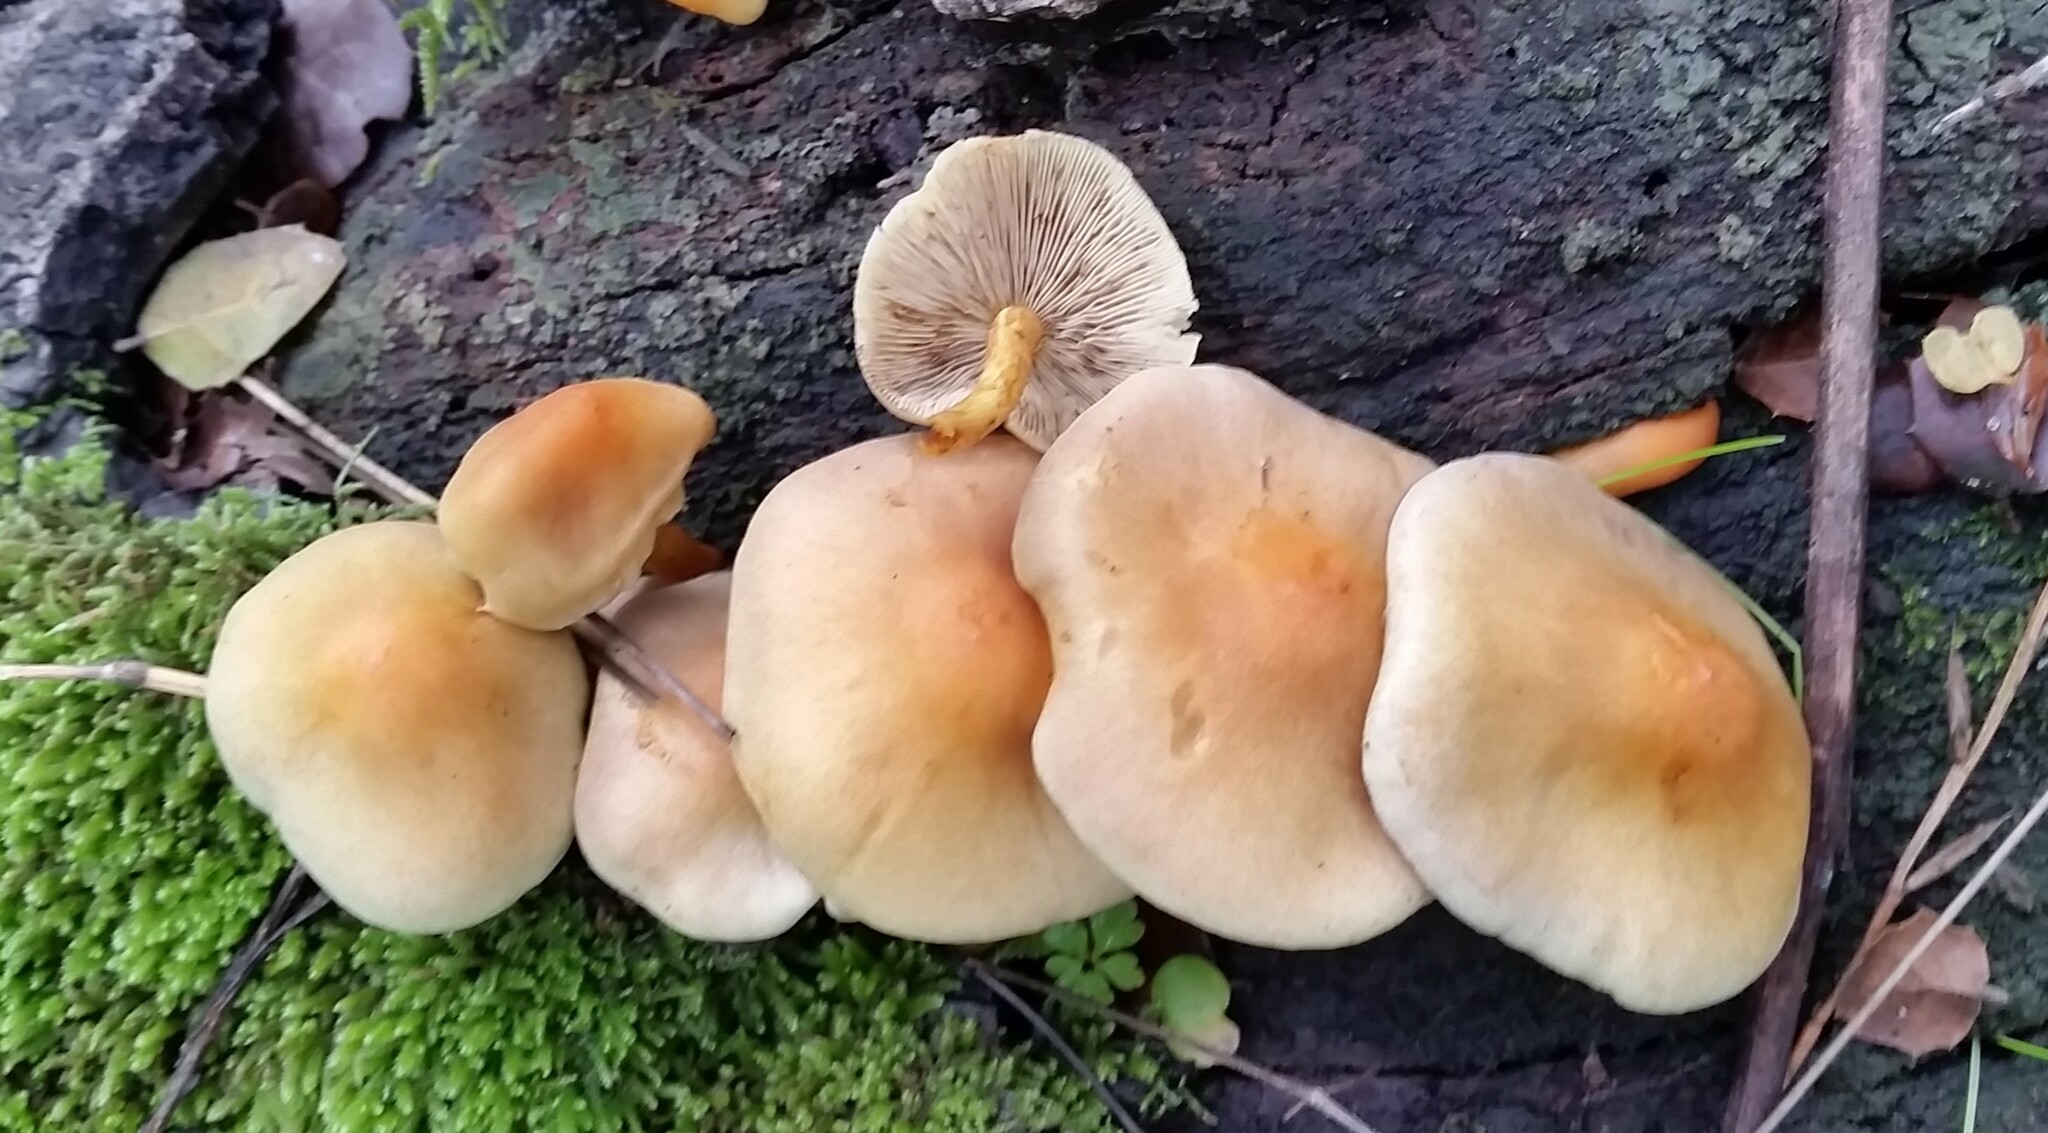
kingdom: Fungi
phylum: Basidiomycota
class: Agaricomycetes
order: Agaricales
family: Strophariaceae
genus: Hypholoma
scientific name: Hypholoma fasciculare
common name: Sulphur tuft
